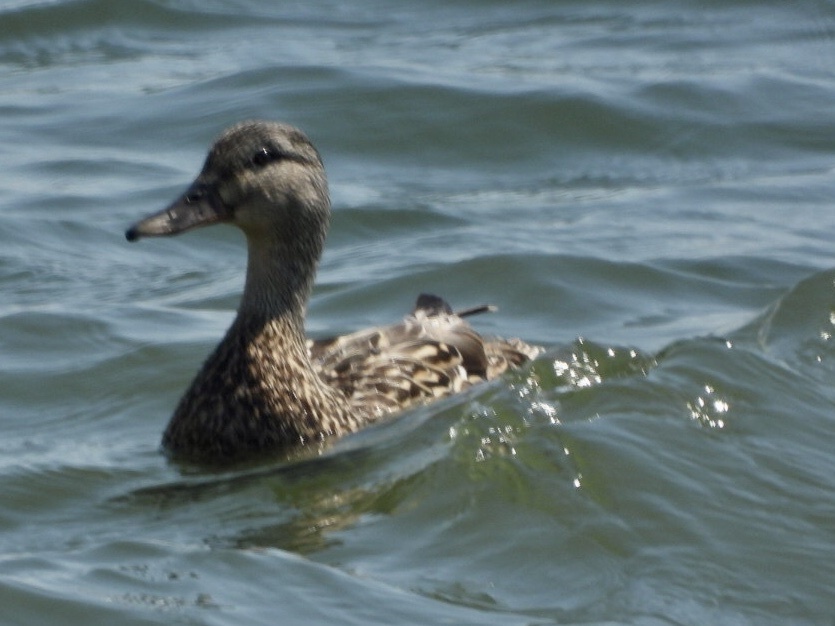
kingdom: Animalia
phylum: Chordata
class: Aves
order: Anseriformes
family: Anatidae
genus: Anas
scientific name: Anas platyrhynchos
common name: Mallard
